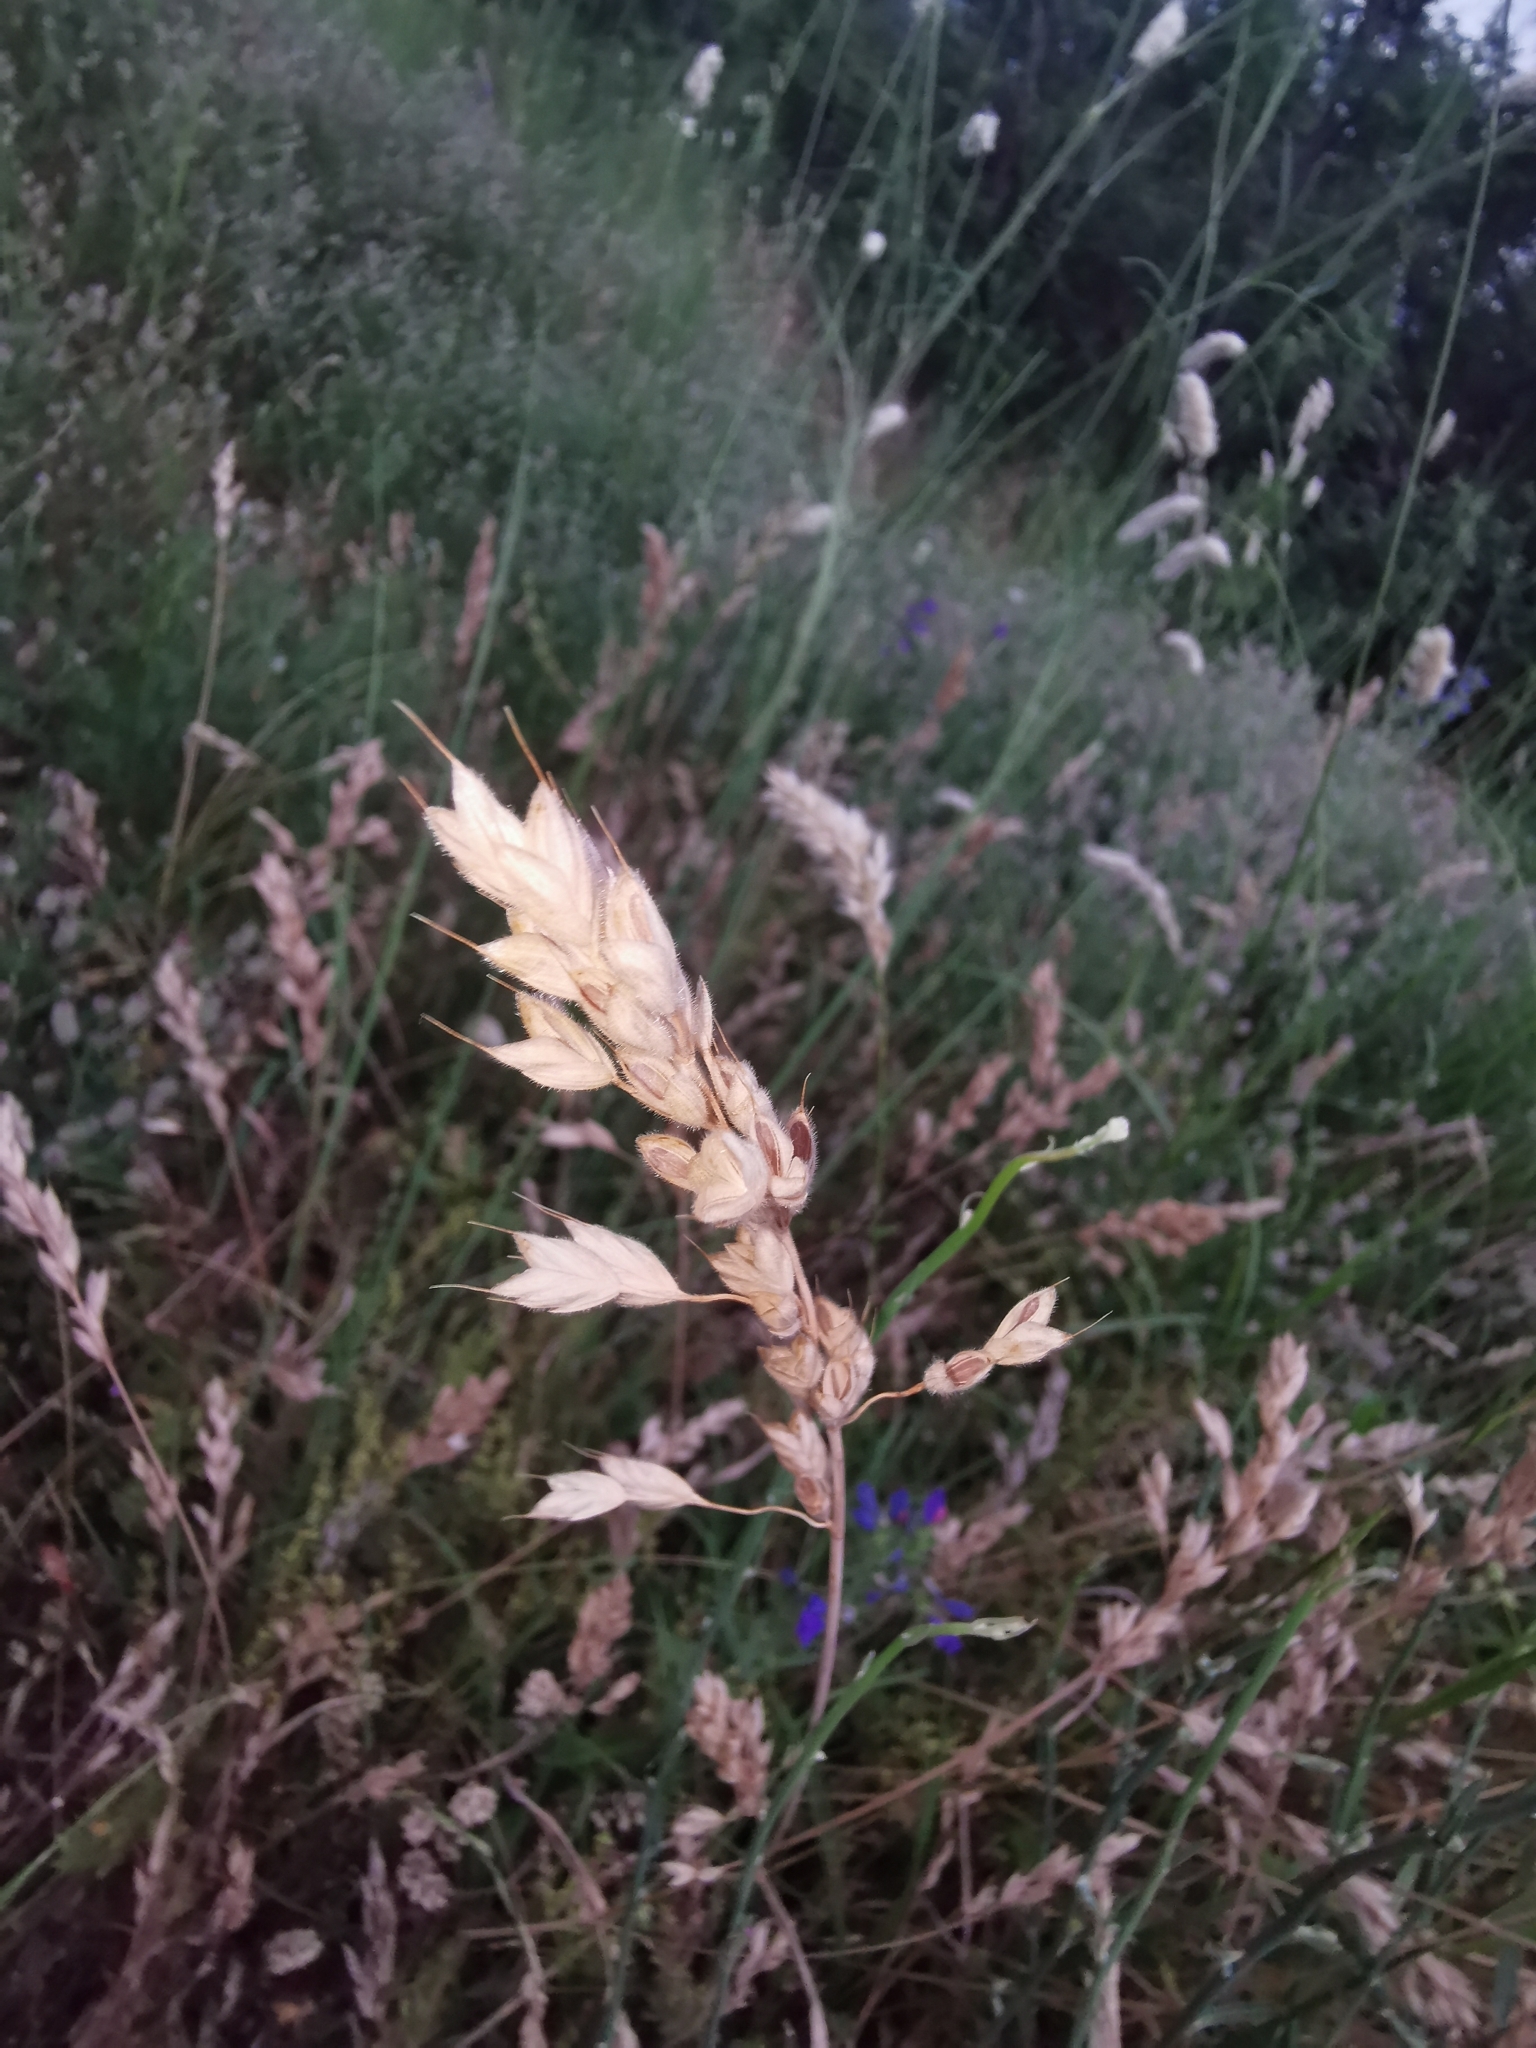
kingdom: Plantae
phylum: Tracheophyta
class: Liliopsida
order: Poales
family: Poaceae
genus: Bromus
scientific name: Bromus hordeaceus
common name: Soft brome
